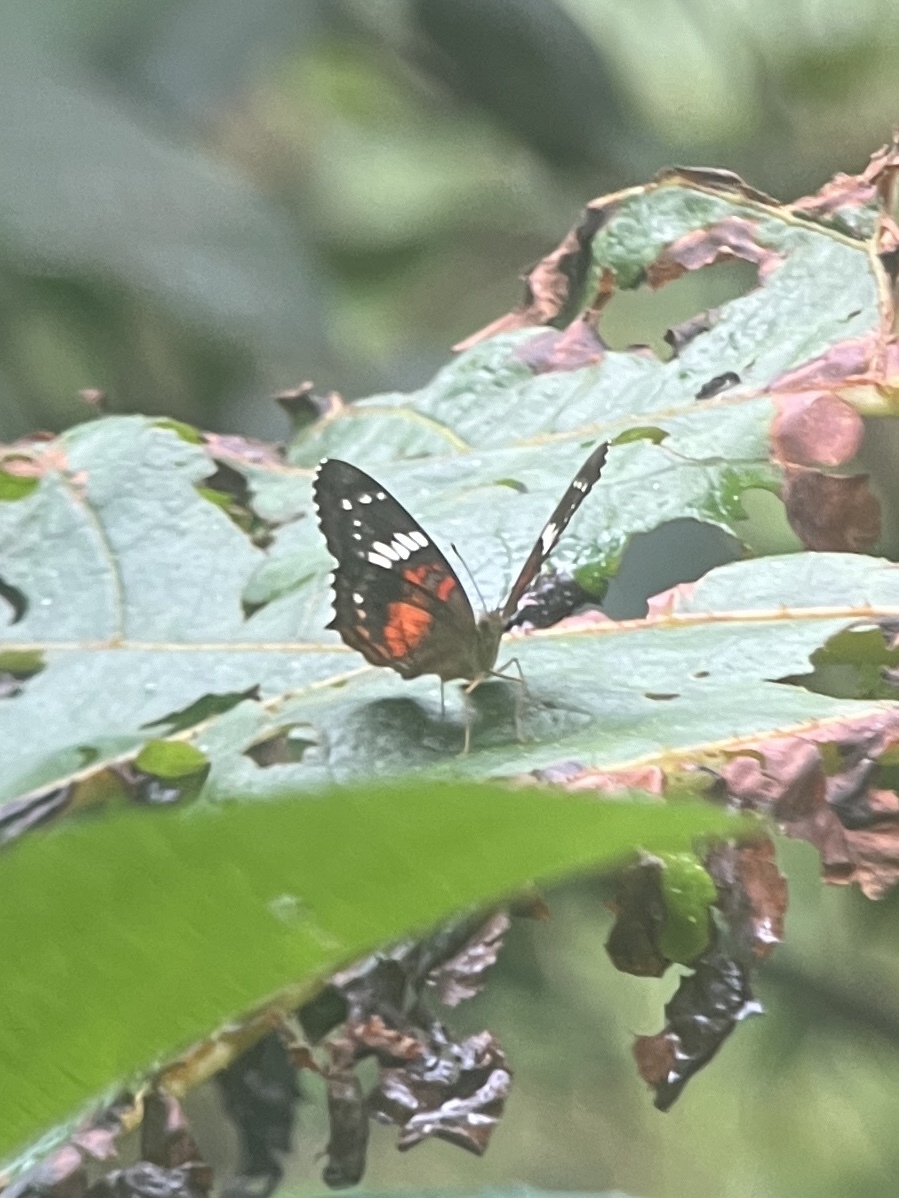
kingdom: Animalia
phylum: Arthropoda
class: Insecta
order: Lepidoptera
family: Nymphalidae
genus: Anartia
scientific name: Anartia amathea
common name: Red peacock
